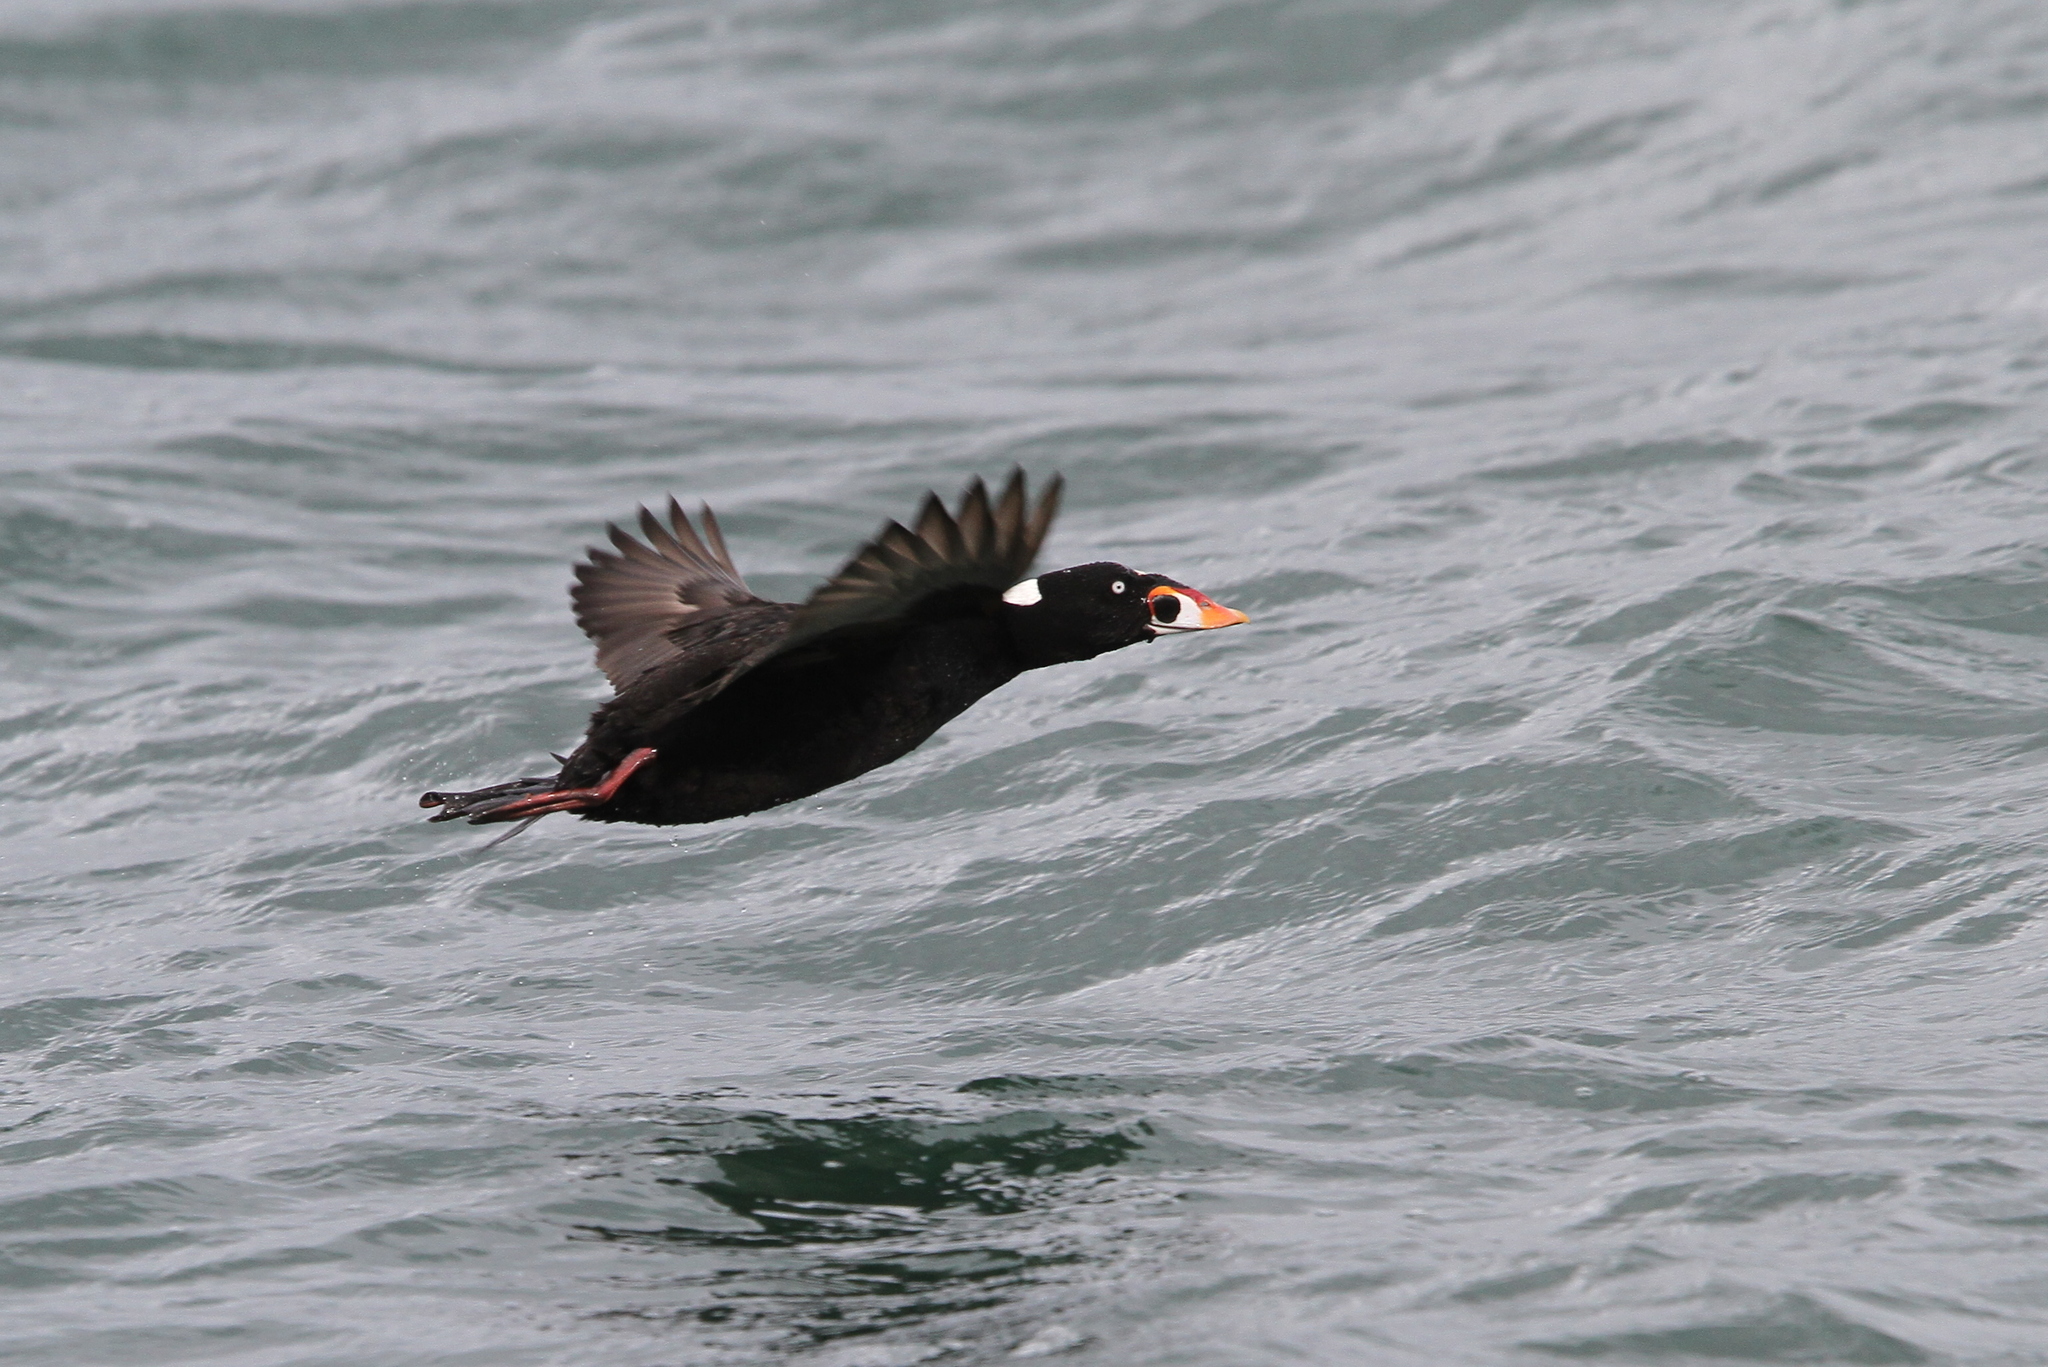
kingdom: Animalia
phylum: Chordata
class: Aves
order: Anseriformes
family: Anatidae
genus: Melanitta
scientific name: Melanitta perspicillata
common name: Surf scoter
